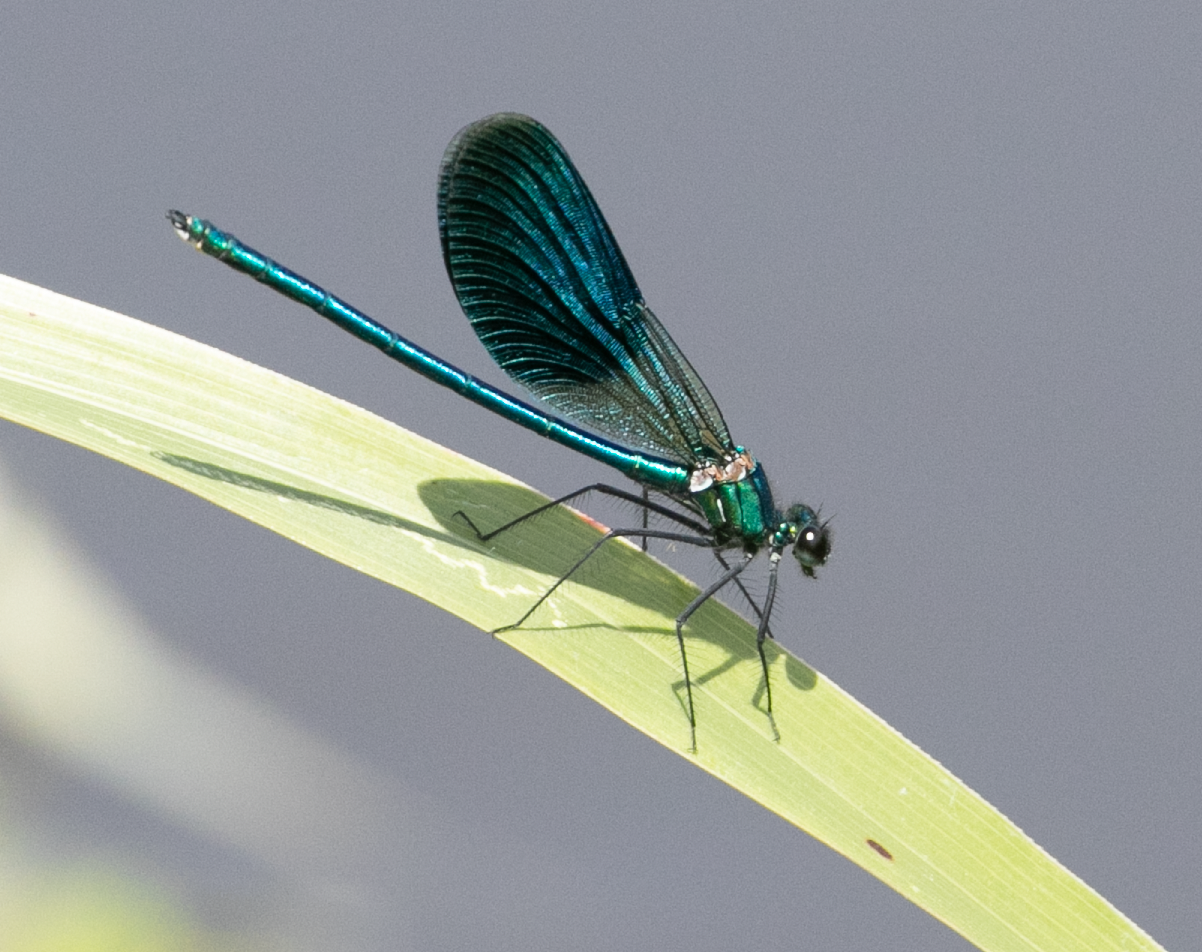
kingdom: Animalia
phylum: Arthropoda
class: Insecta
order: Odonata
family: Calopterygidae
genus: Calopteryx
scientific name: Calopteryx splendens
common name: Banded demoiselle
